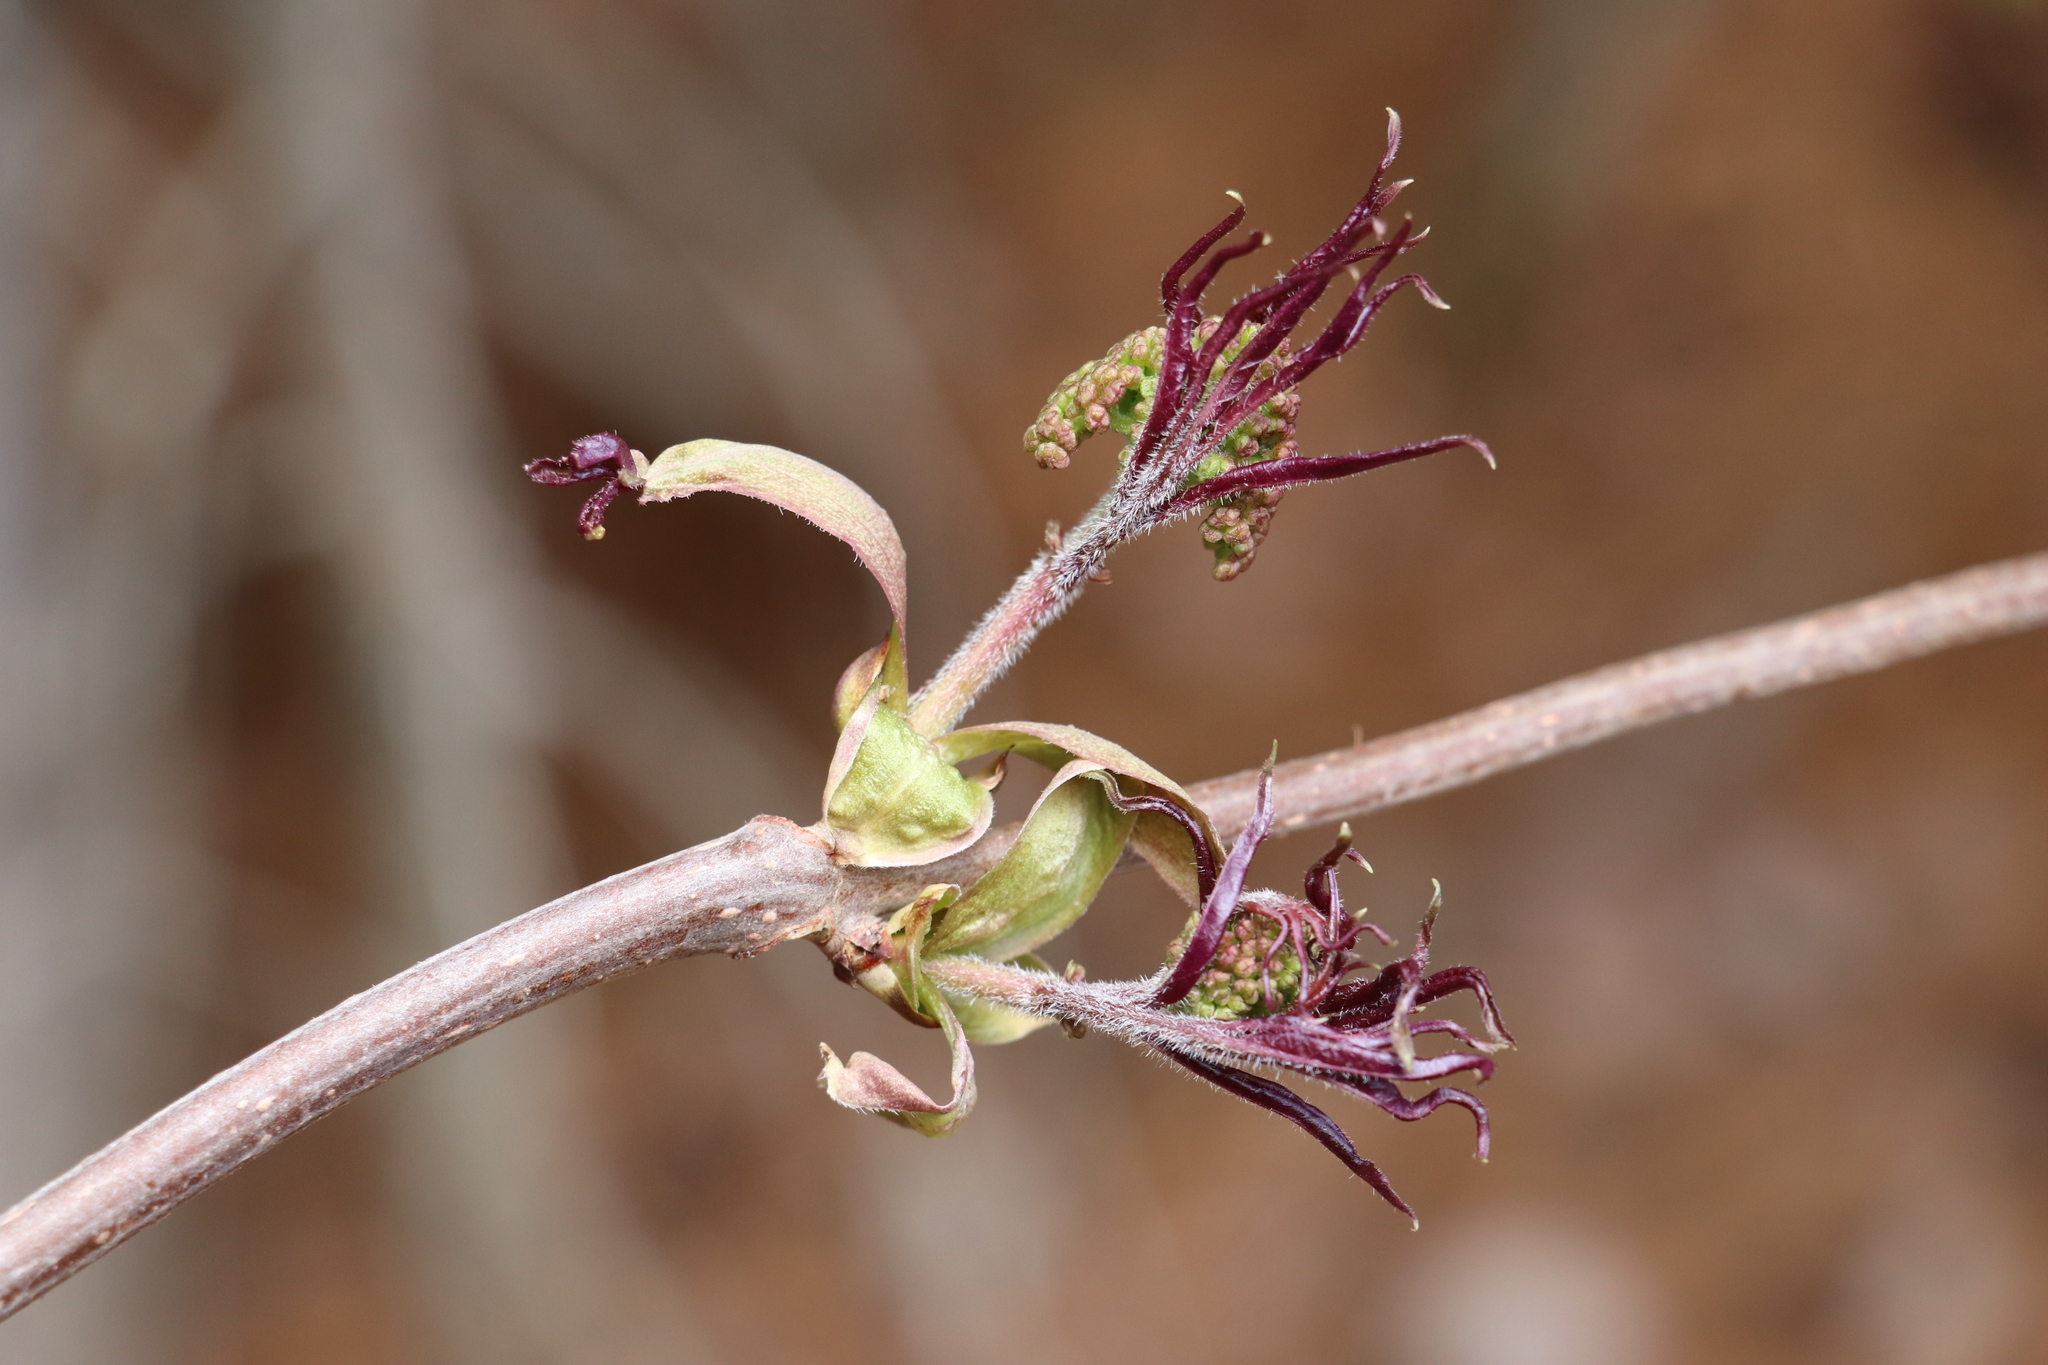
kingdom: Plantae
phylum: Tracheophyta
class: Magnoliopsida
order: Dipsacales
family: Viburnaceae
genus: Sambucus
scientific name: Sambucus sibirica
